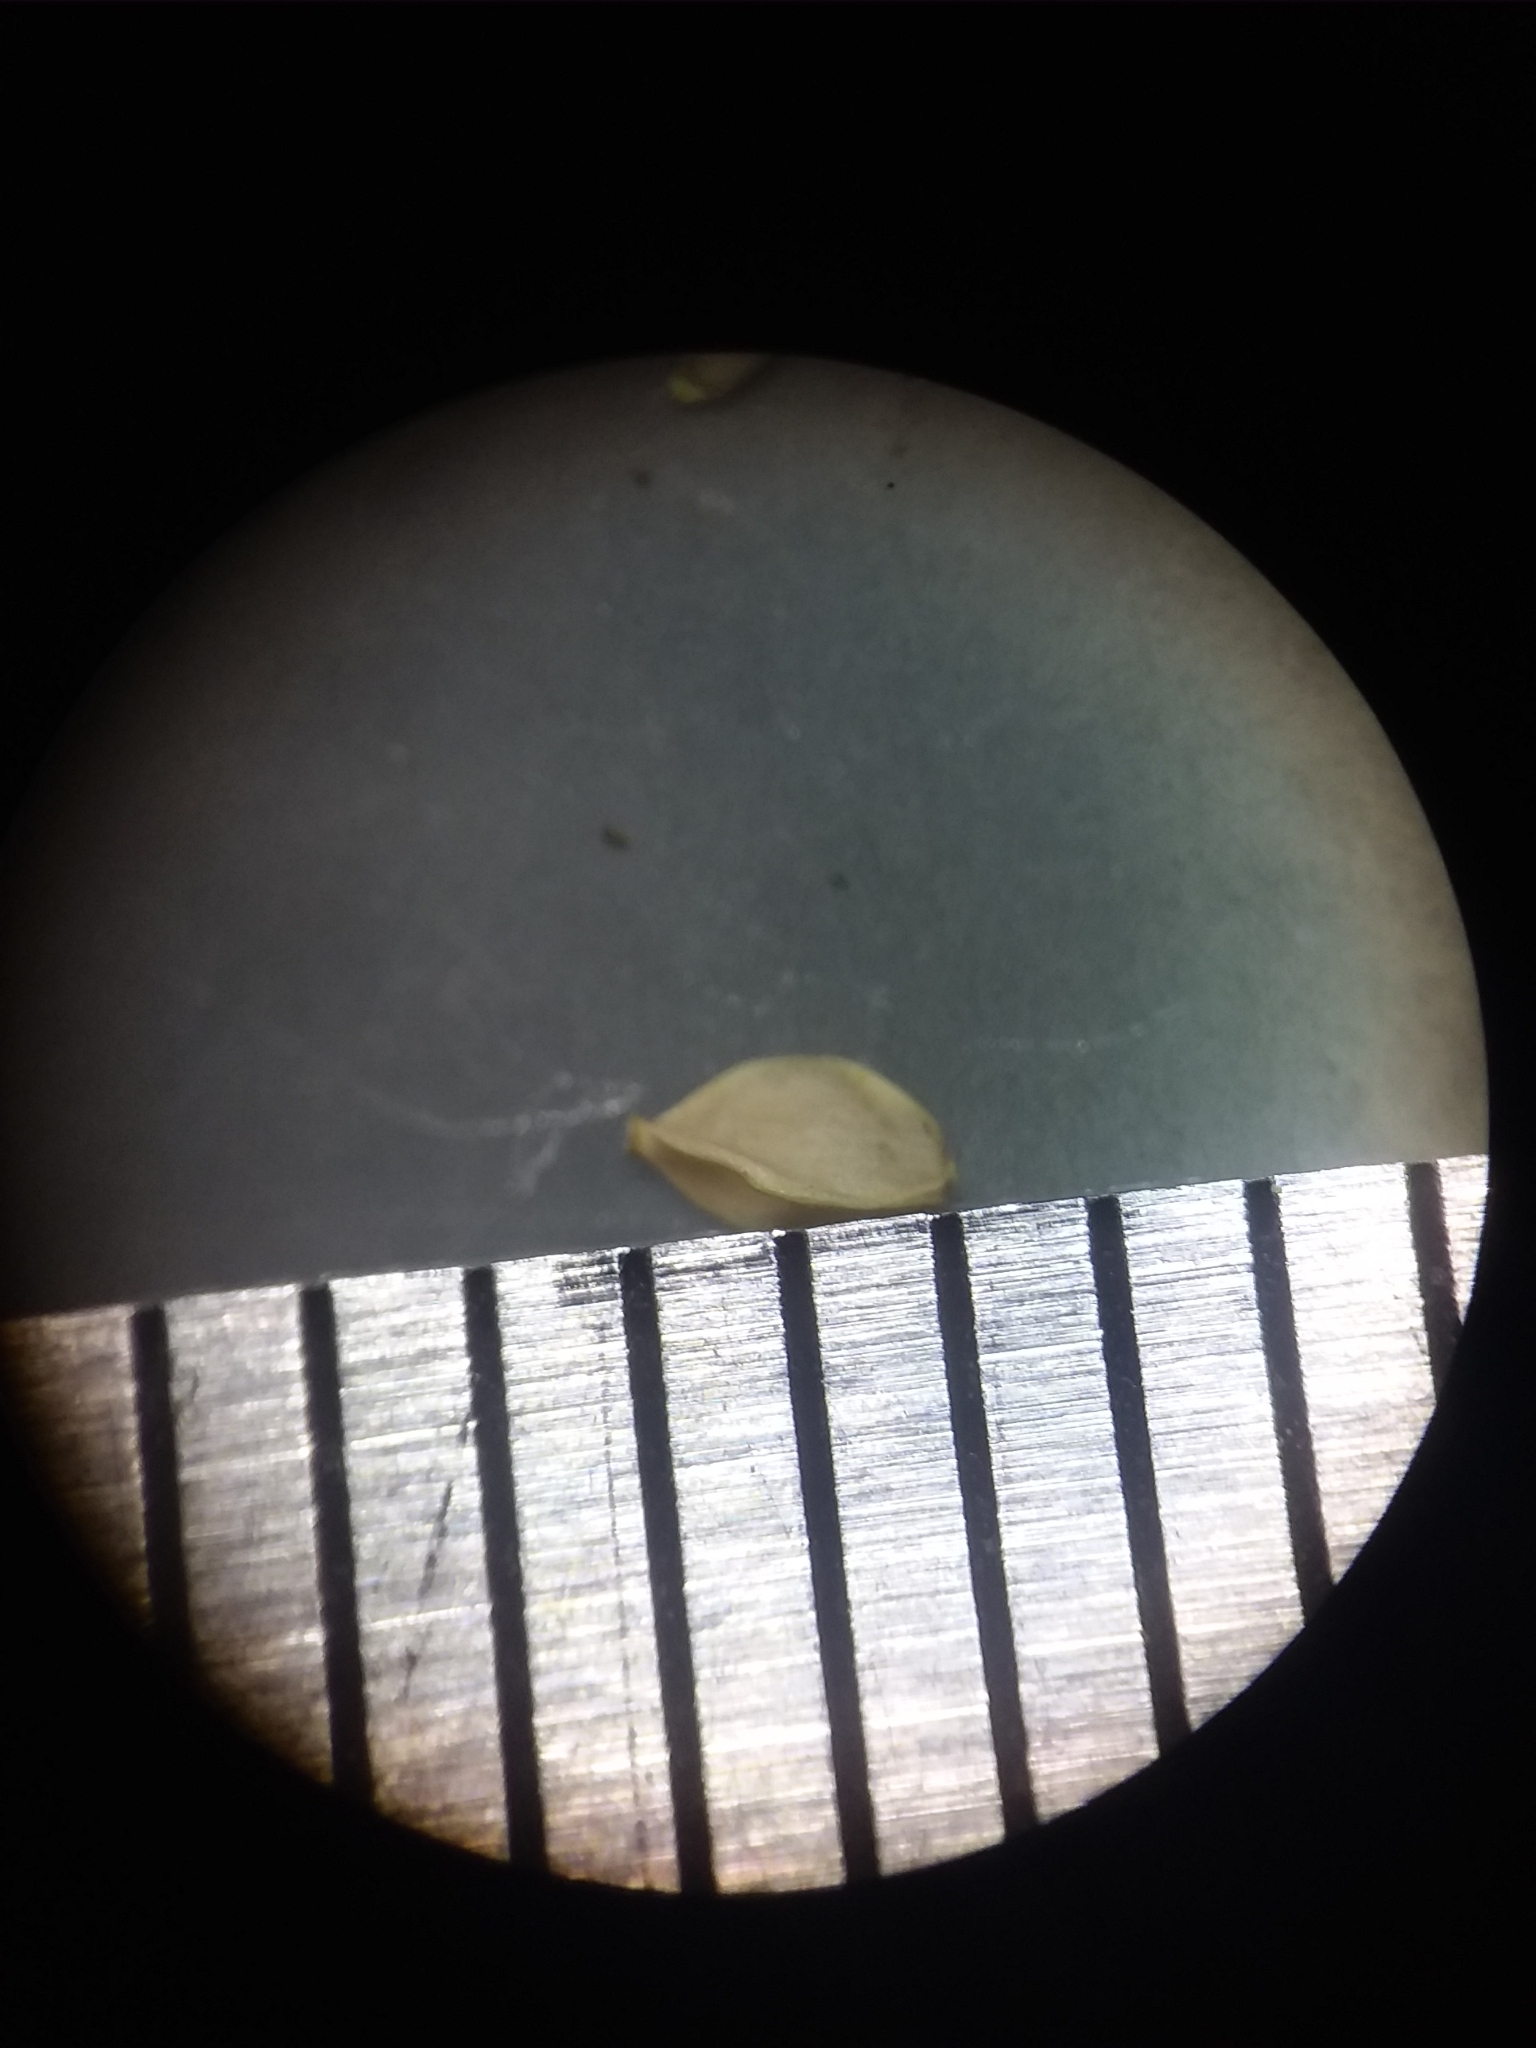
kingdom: Plantae
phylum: Tracheophyta
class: Liliopsida
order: Poales
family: Cyperaceae
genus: Carex
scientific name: Carex abscondita
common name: Thicket sedge
